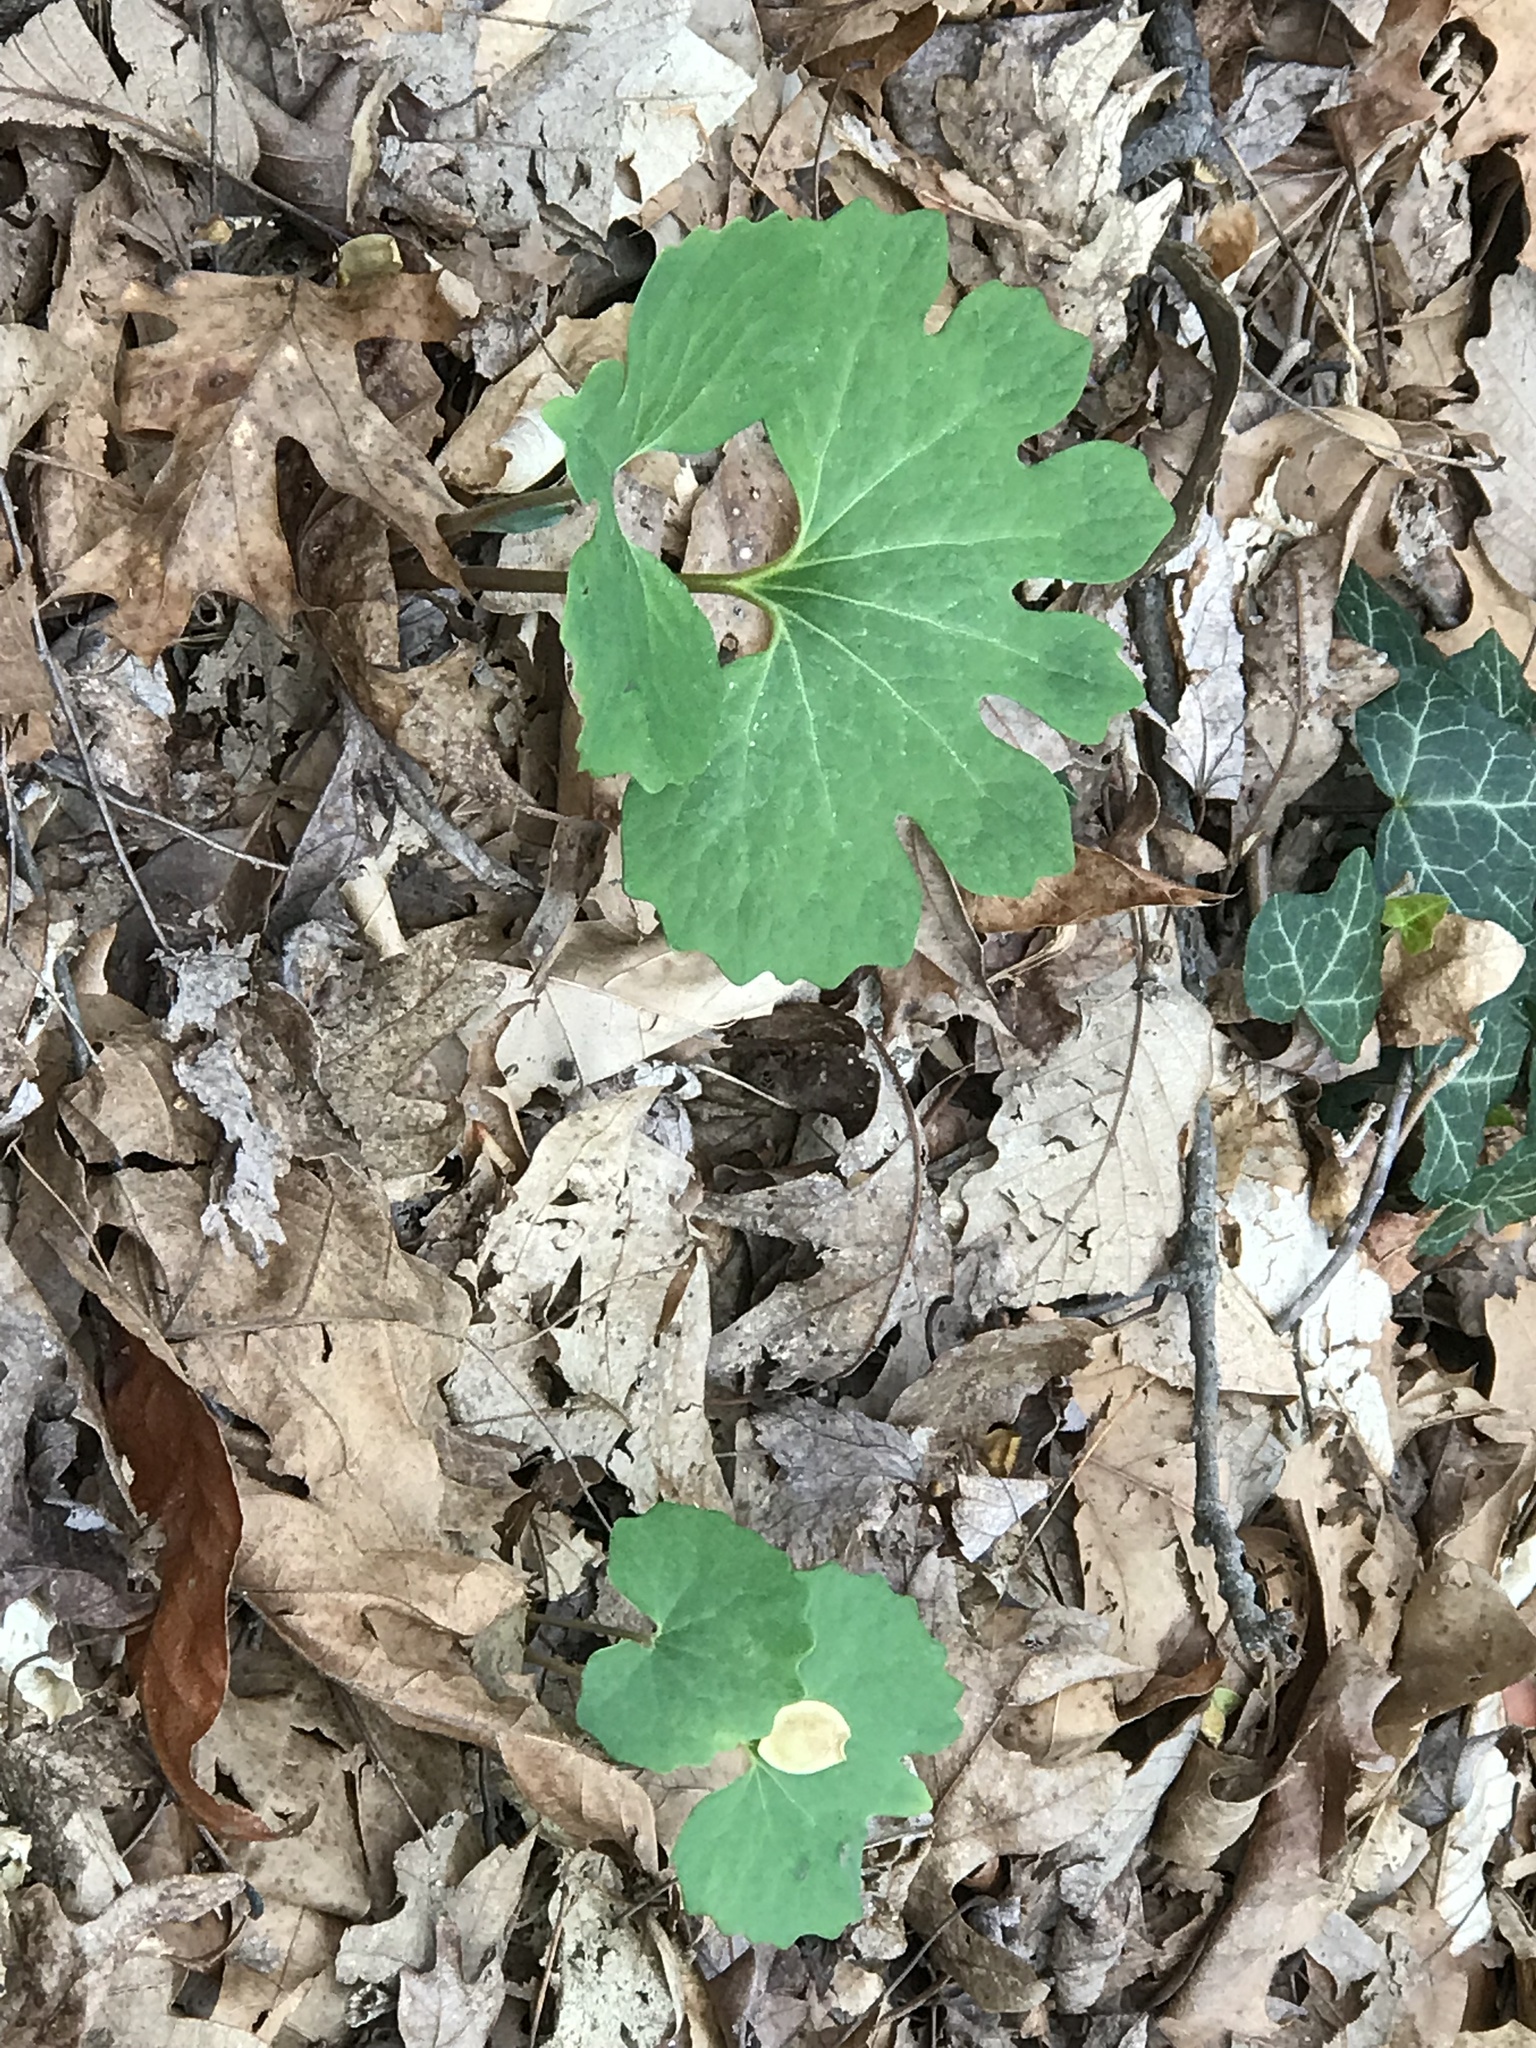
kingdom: Plantae
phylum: Tracheophyta
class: Magnoliopsida
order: Ranunculales
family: Papaveraceae
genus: Sanguinaria
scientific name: Sanguinaria canadensis
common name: Bloodroot
